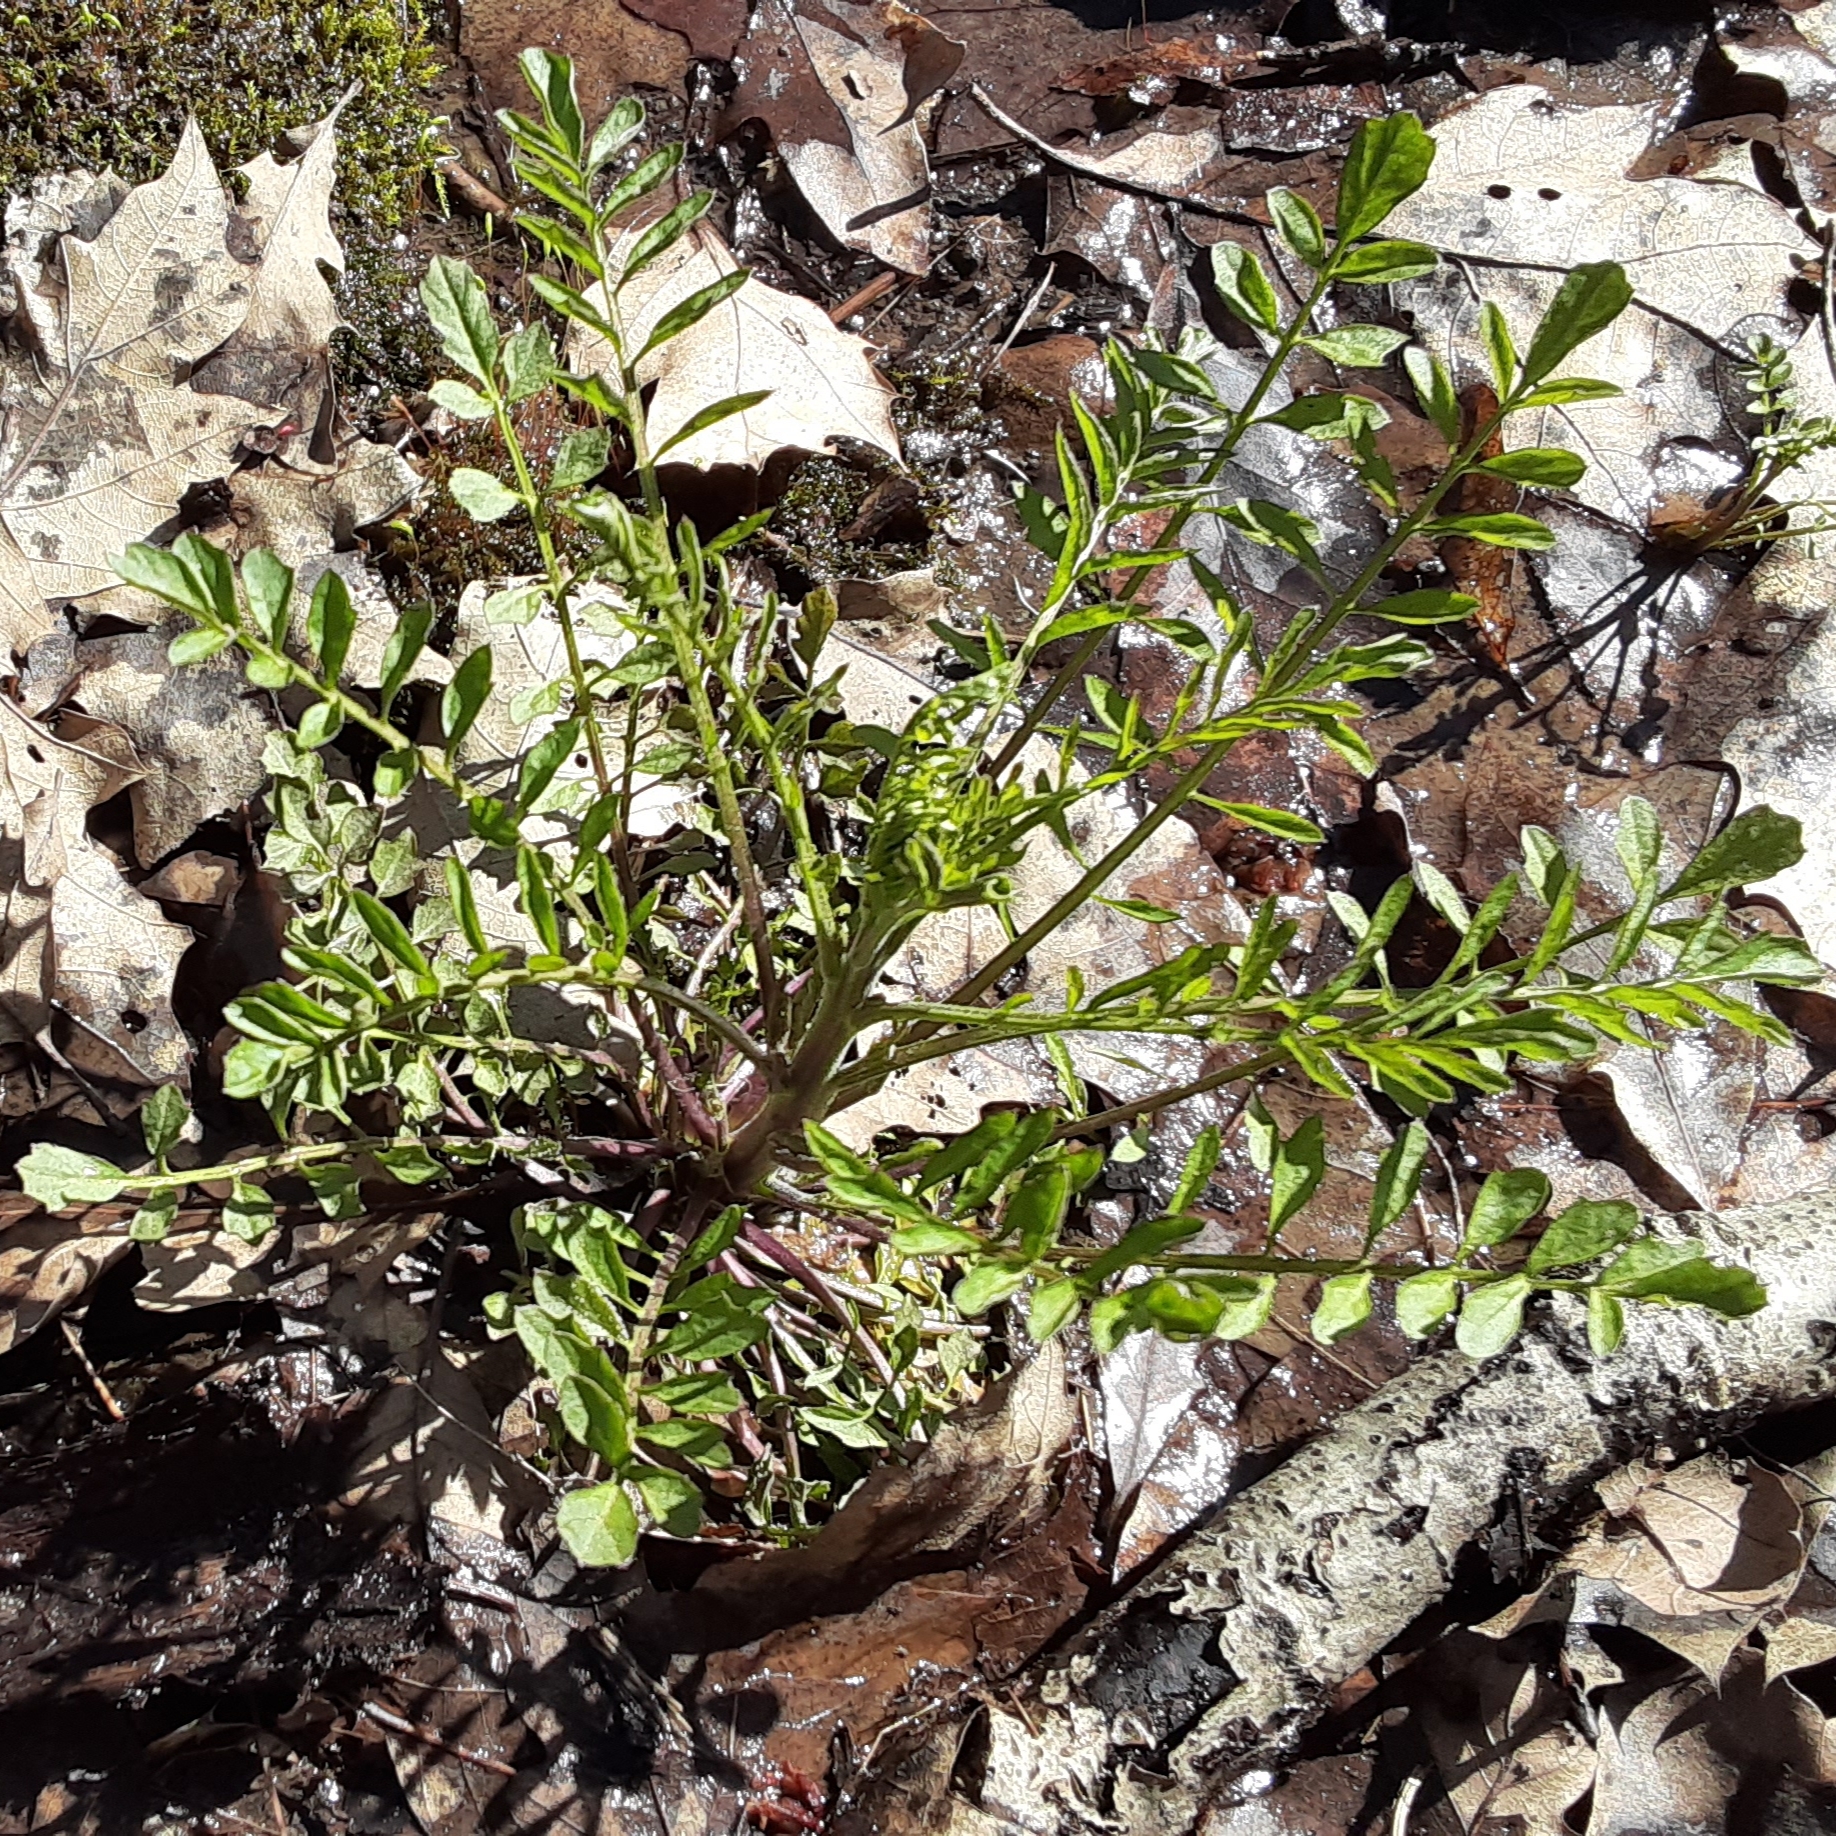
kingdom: Plantae
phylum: Tracheophyta
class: Magnoliopsida
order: Brassicales
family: Brassicaceae
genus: Cardamine
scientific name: Cardamine pensylvanica
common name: Pennsylvania bittercress
